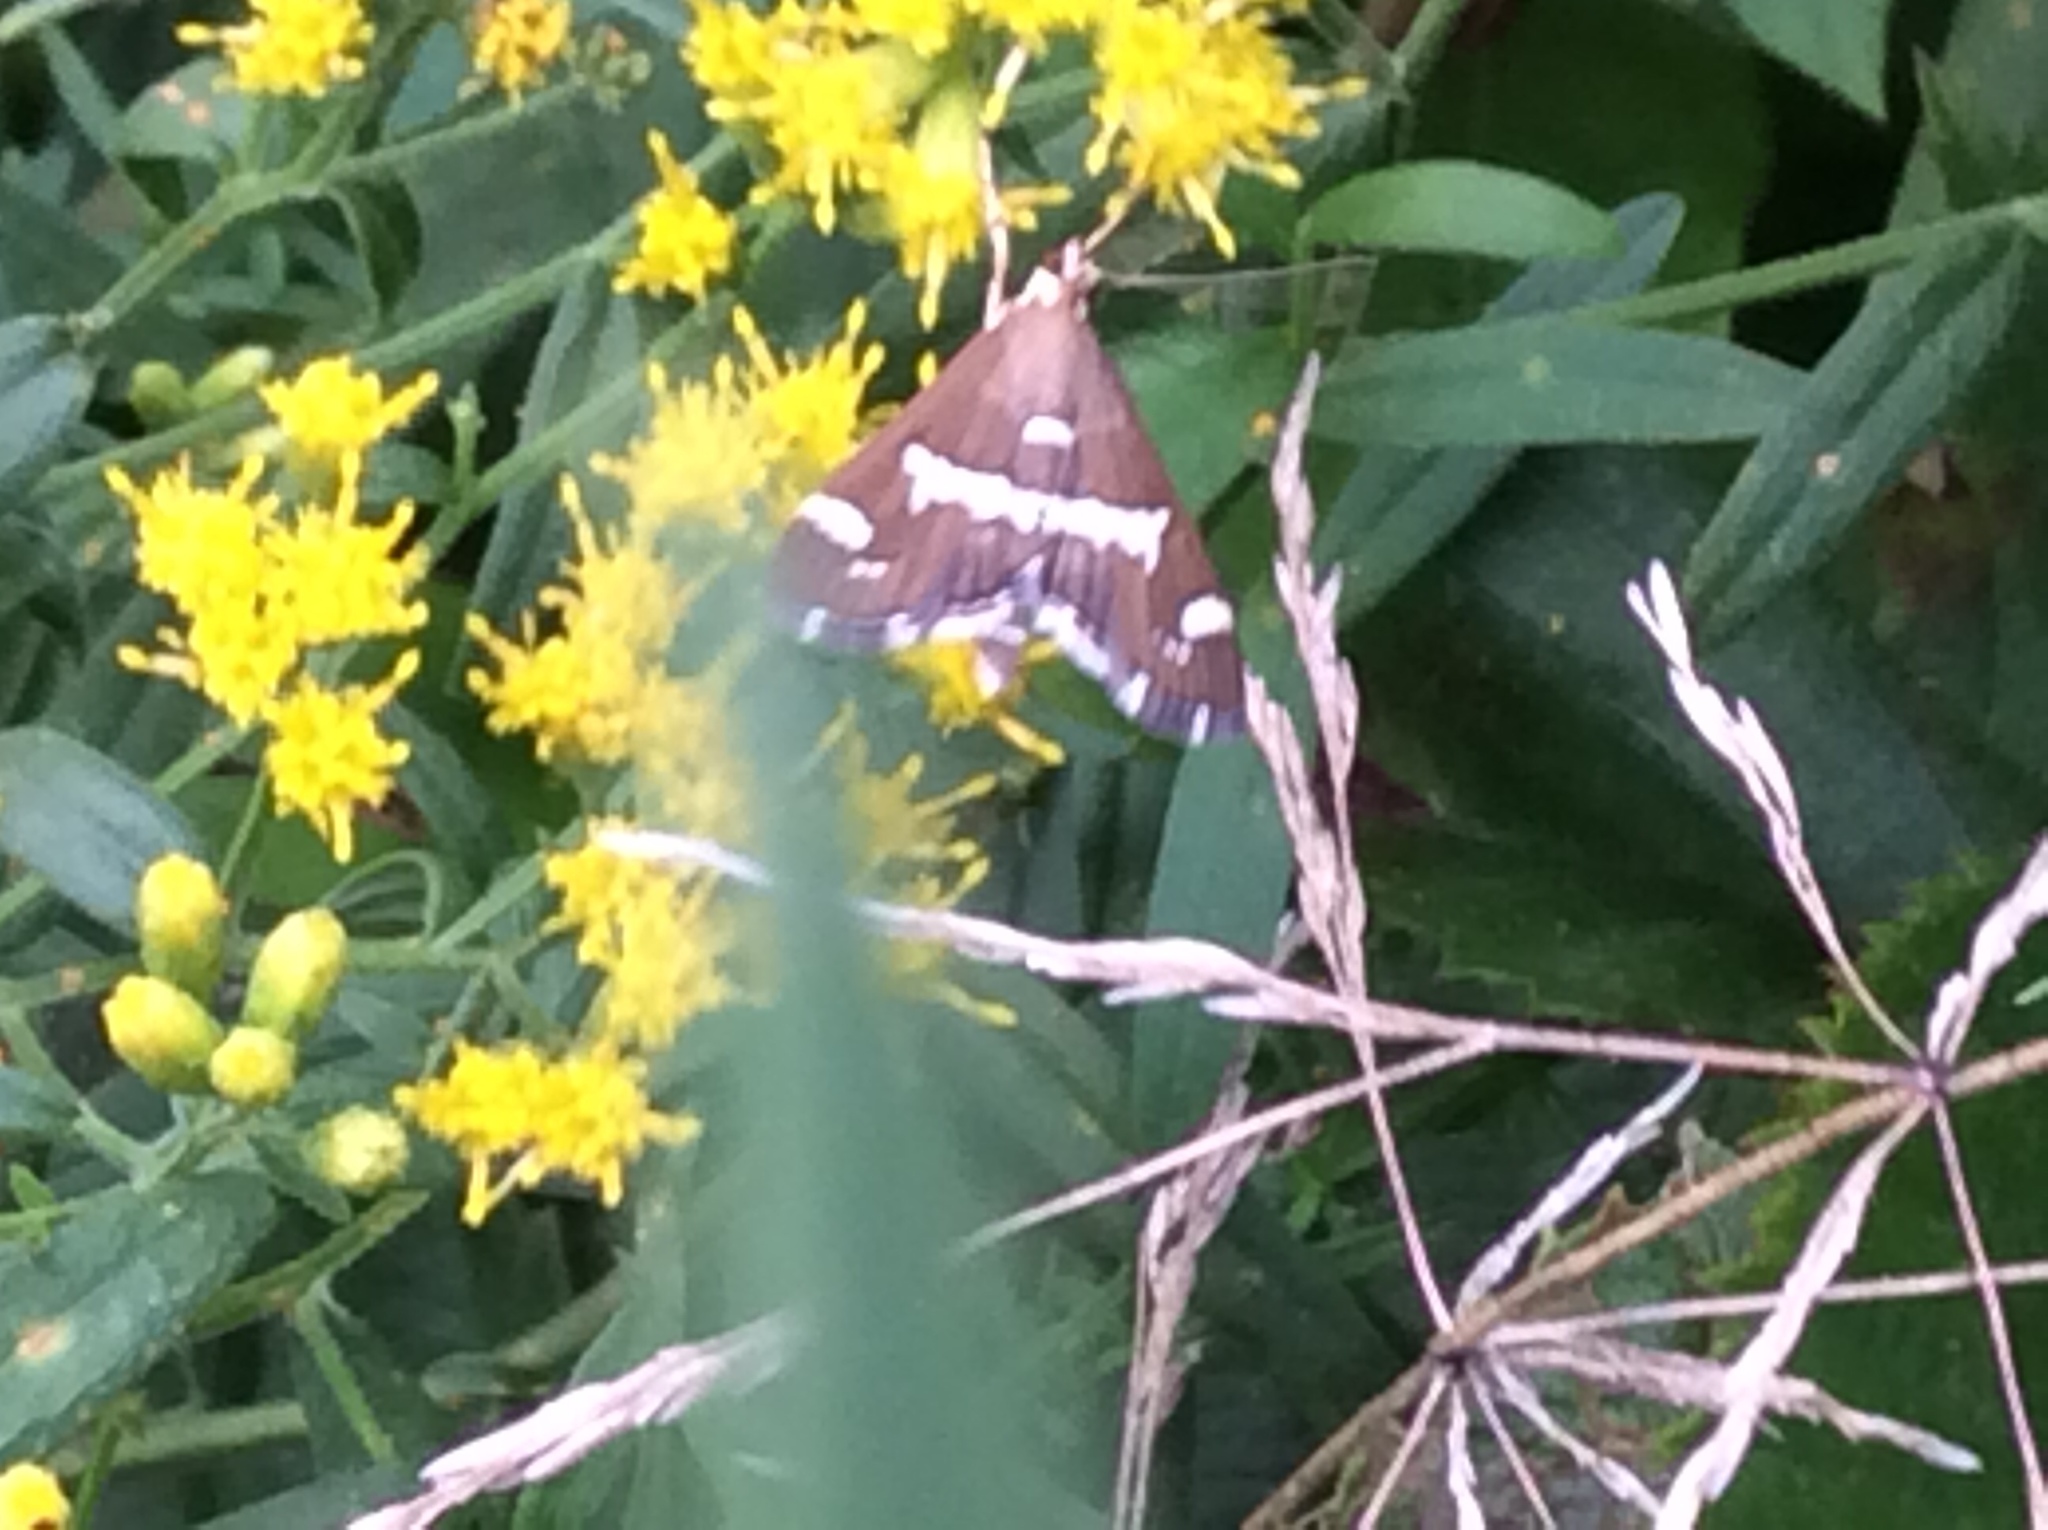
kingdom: Animalia
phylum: Arthropoda
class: Insecta
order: Lepidoptera
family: Crambidae
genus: Spoladea
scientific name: Spoladea recurvalis
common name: Beet webworm moth
